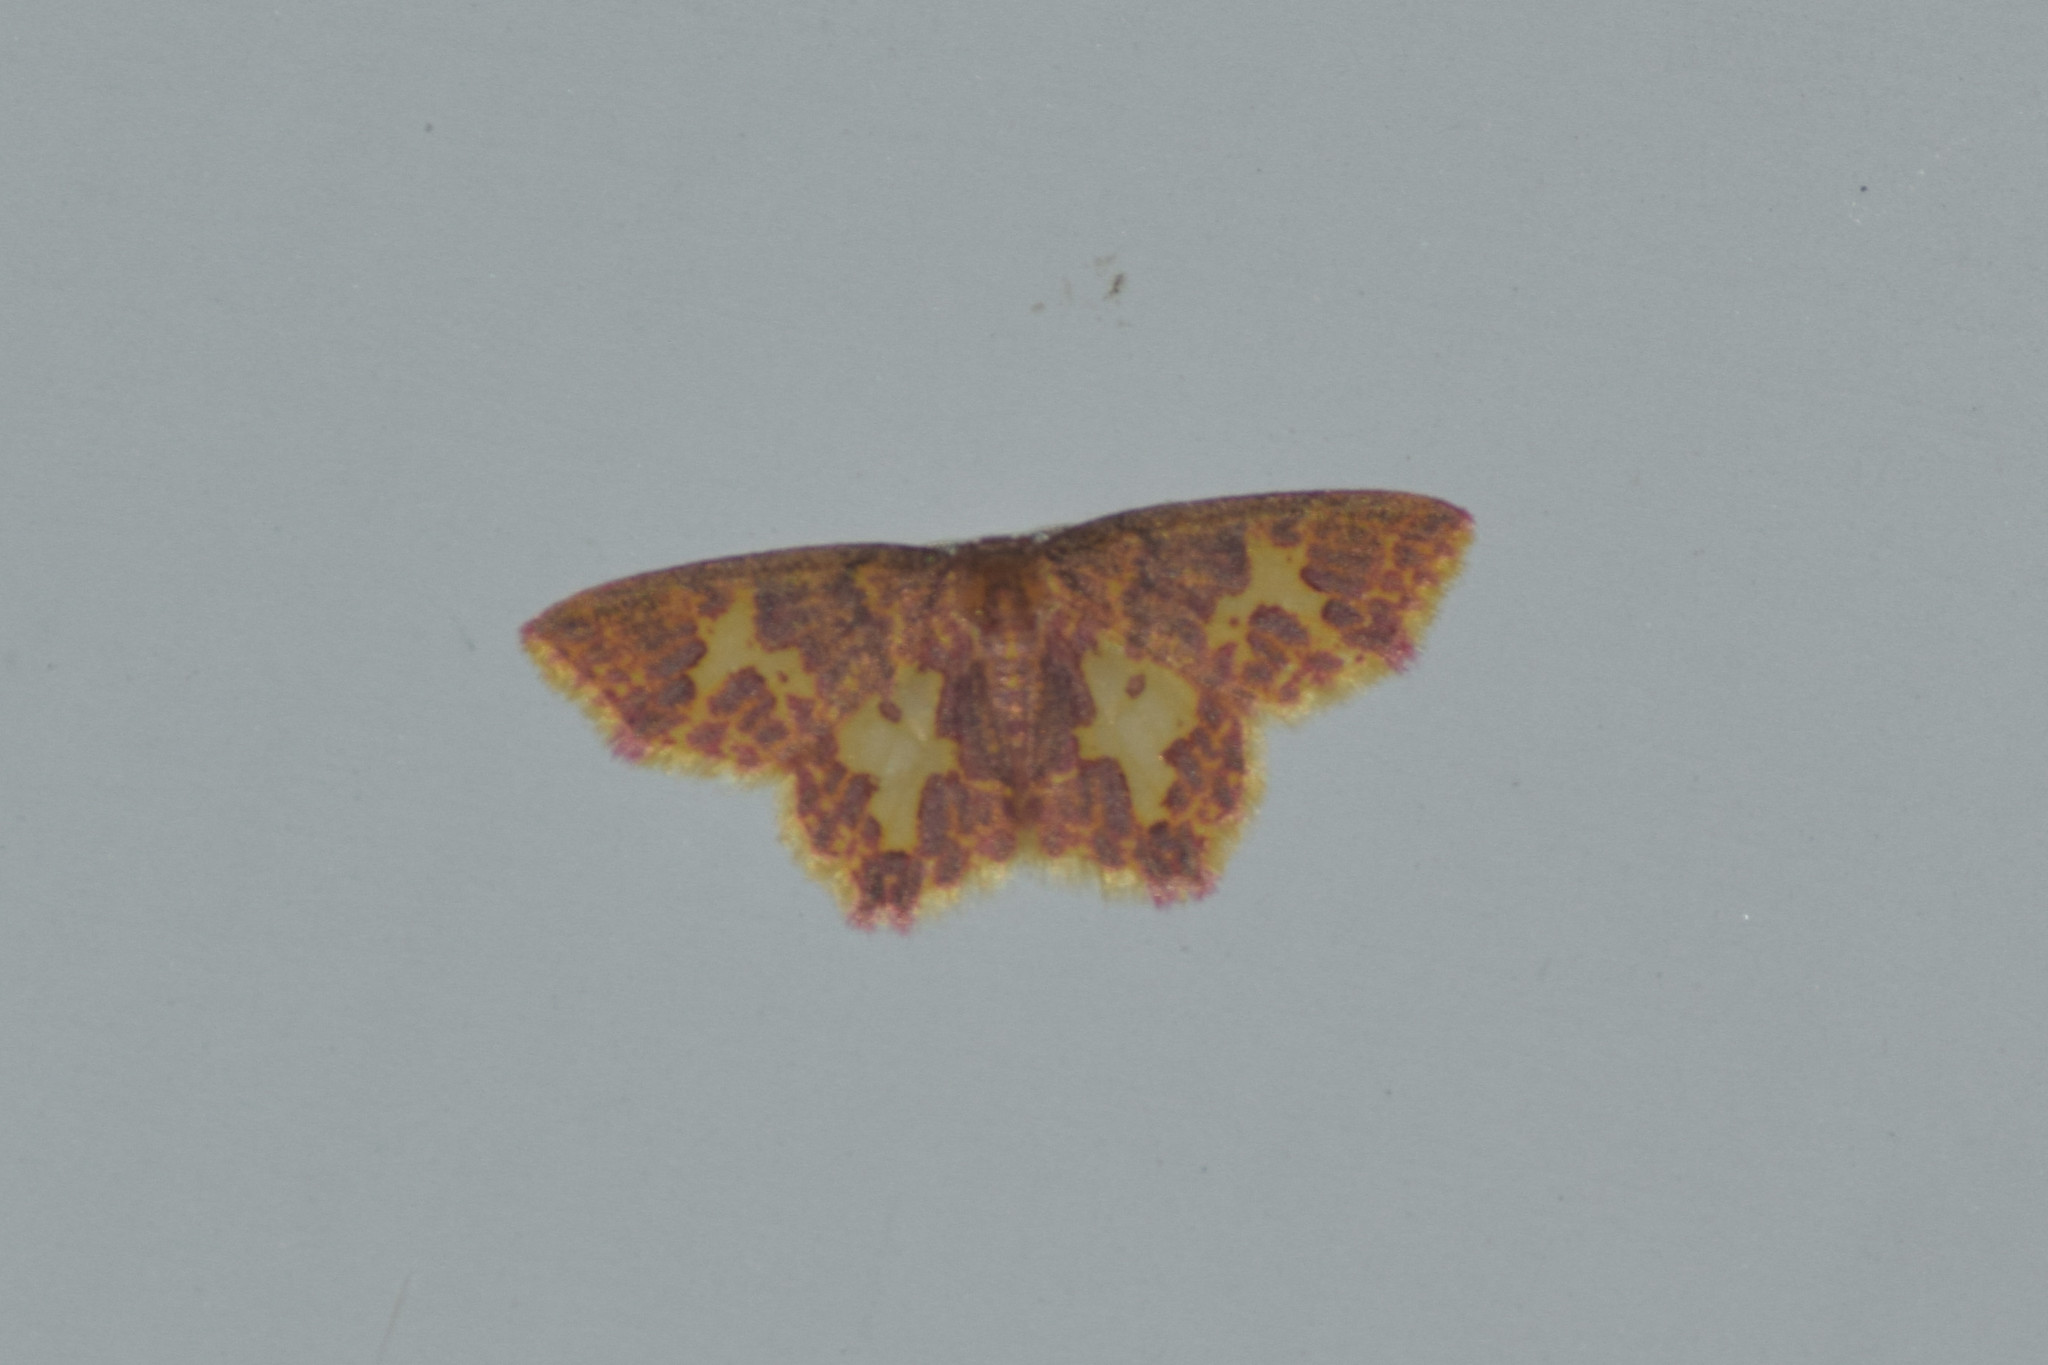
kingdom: Animalia
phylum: Arthropoda
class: Insecta
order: Lepidoptera
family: Geometridae
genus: Chrysocraspeda
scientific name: Chrysocraspeda faganaria
